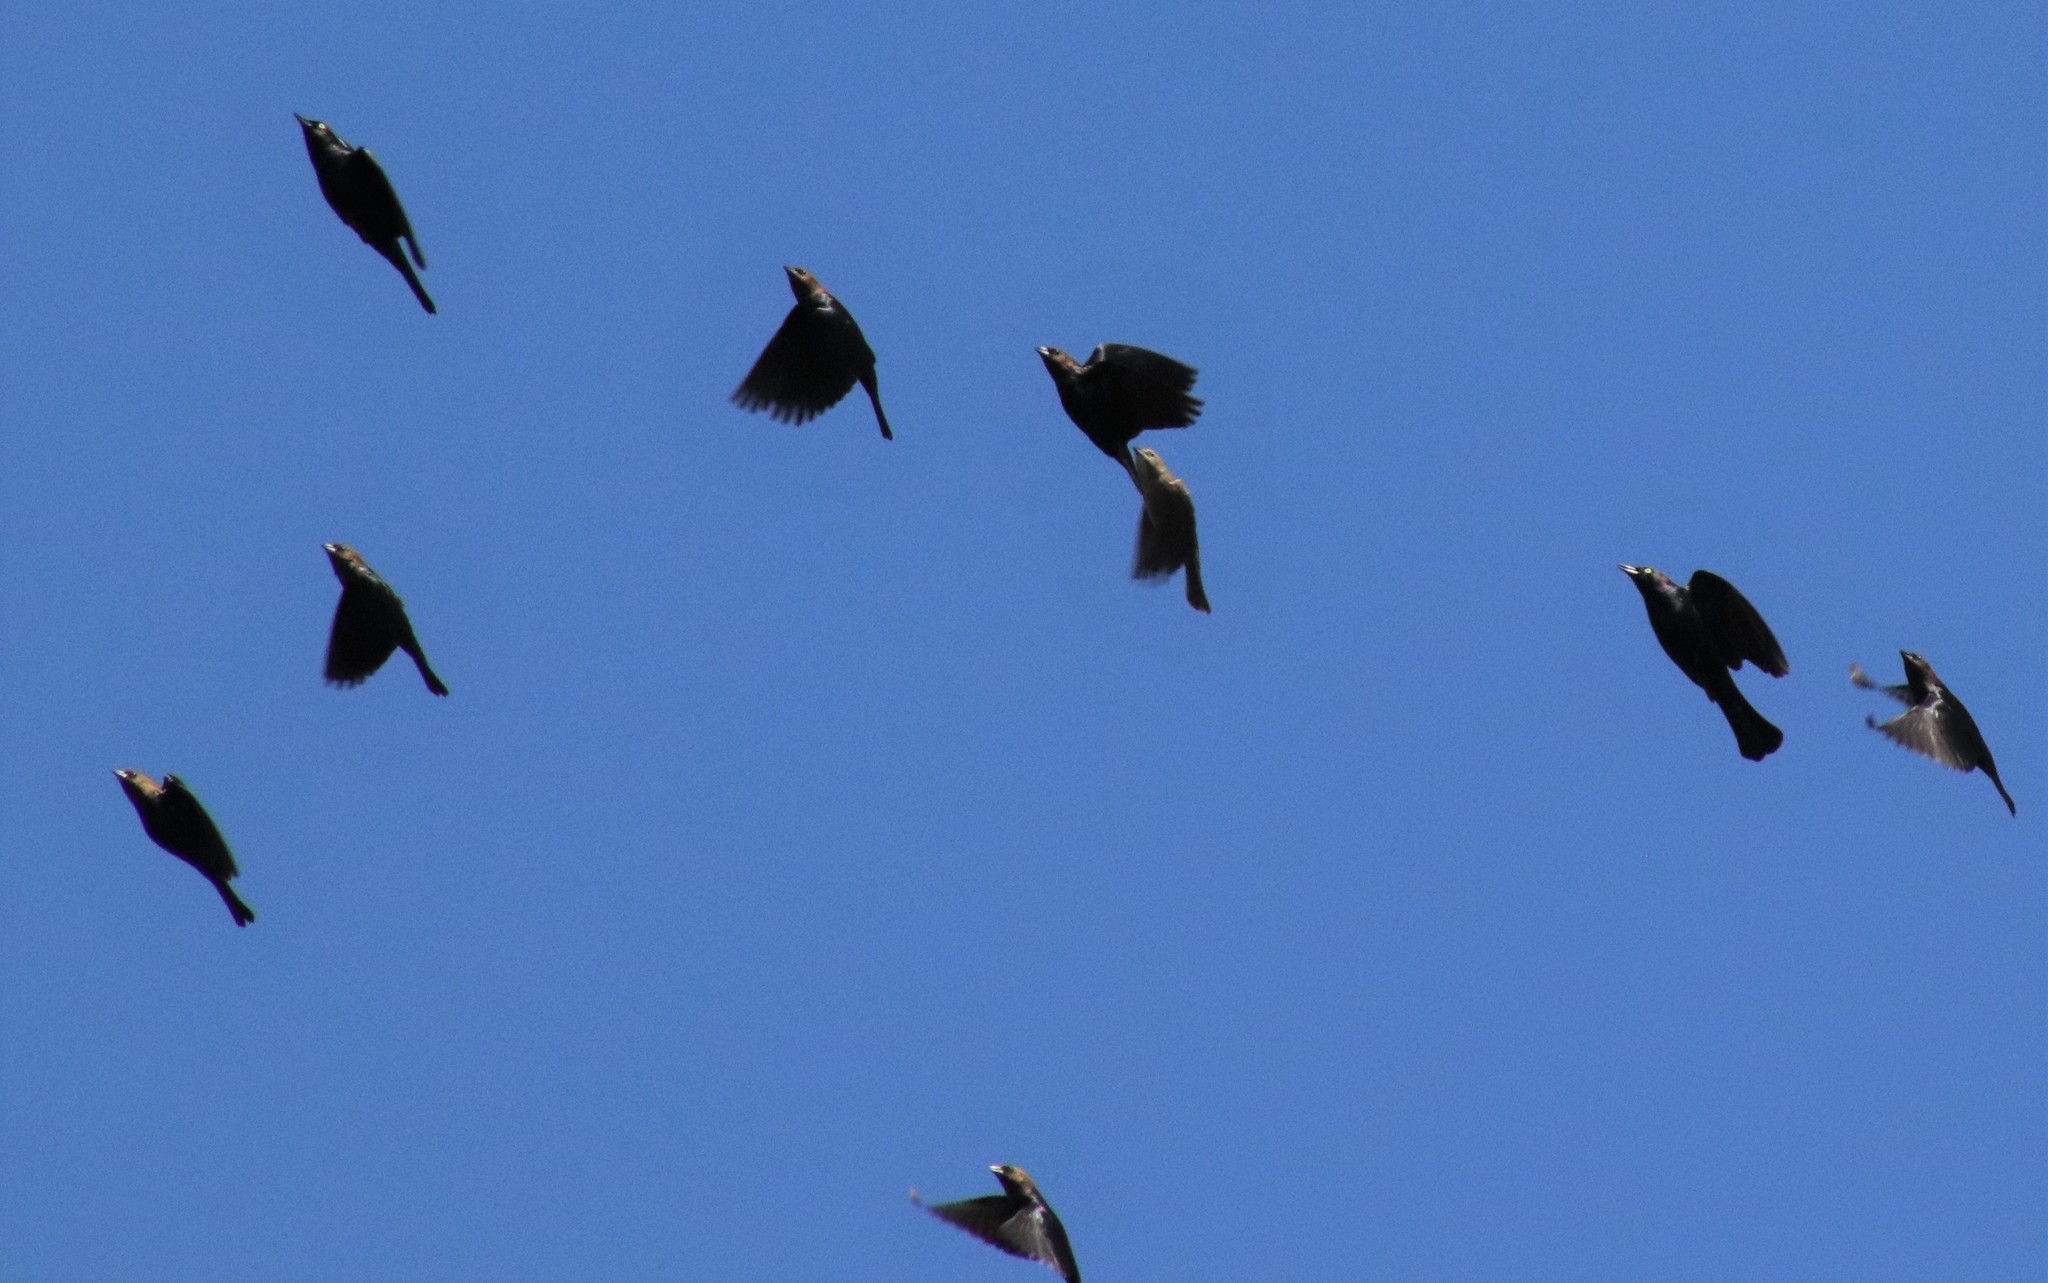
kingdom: Animalia
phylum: Chordata
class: Aves
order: Passeriformes
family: Icteridae
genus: Molothrus
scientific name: Molothrus ater
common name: Brown-headed cowbird
